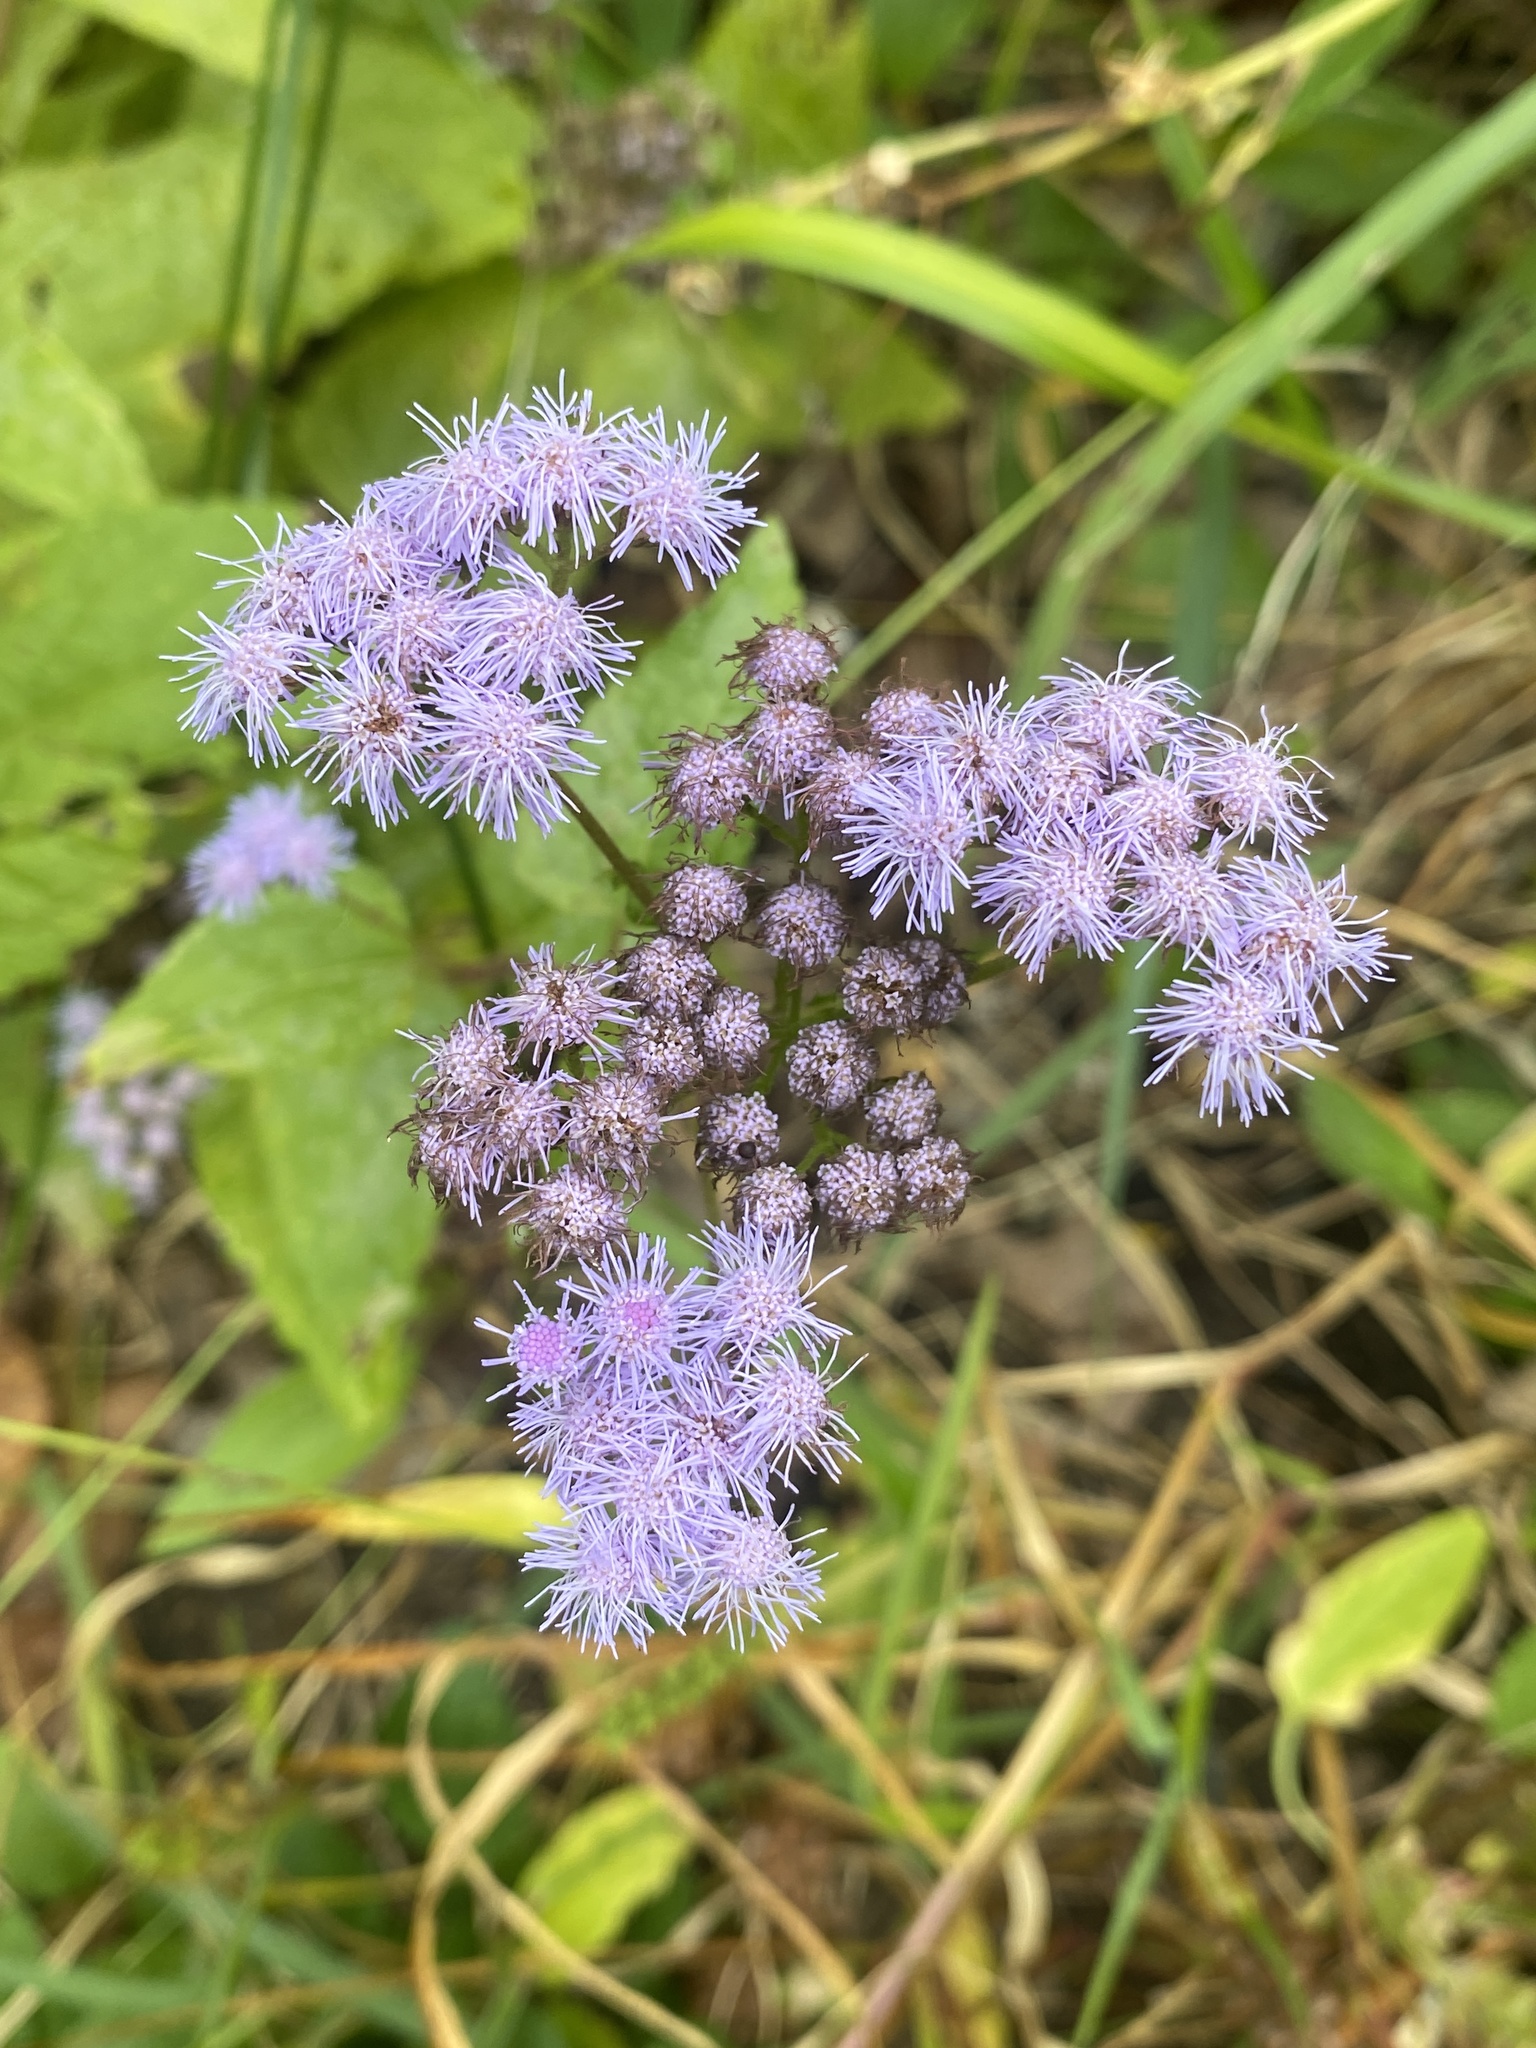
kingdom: Plantae
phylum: Tracheophyta
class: Magnoliopsida
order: Asterales
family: Asteraceae
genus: Conoclinium
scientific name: Conoclinium coelestinum
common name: Blue mistflower
